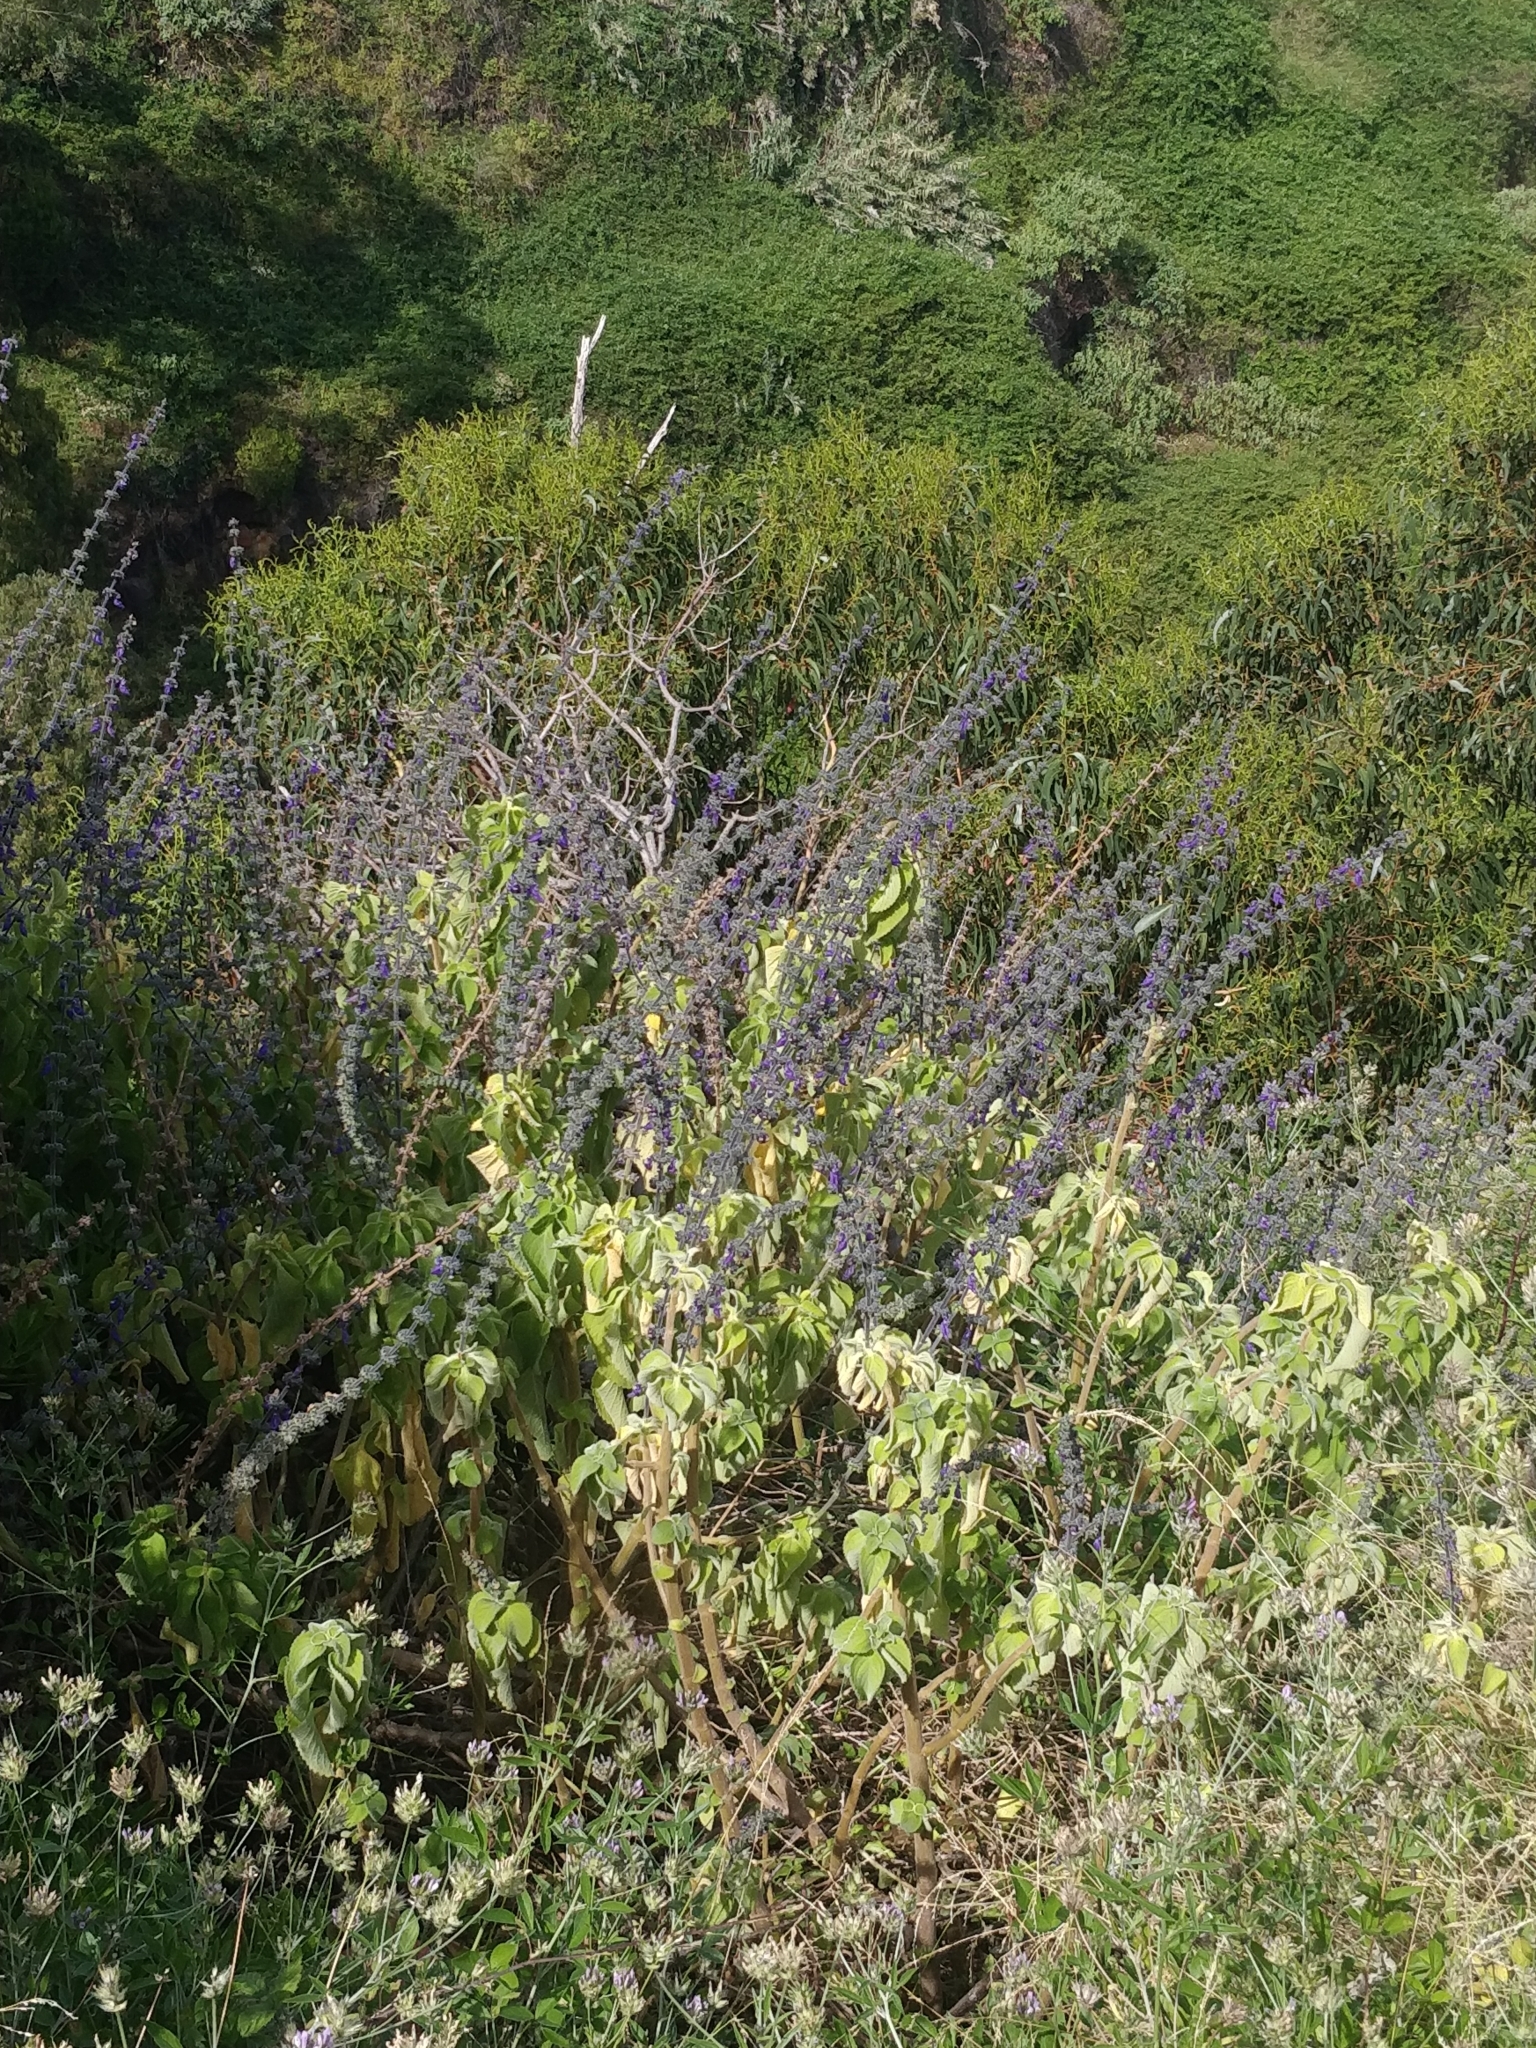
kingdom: Plantae
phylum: Tracheophyta
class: Magnoliopsida
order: Lamiales
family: Lamiaceae
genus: Coleus
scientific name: Coleus barbatus
